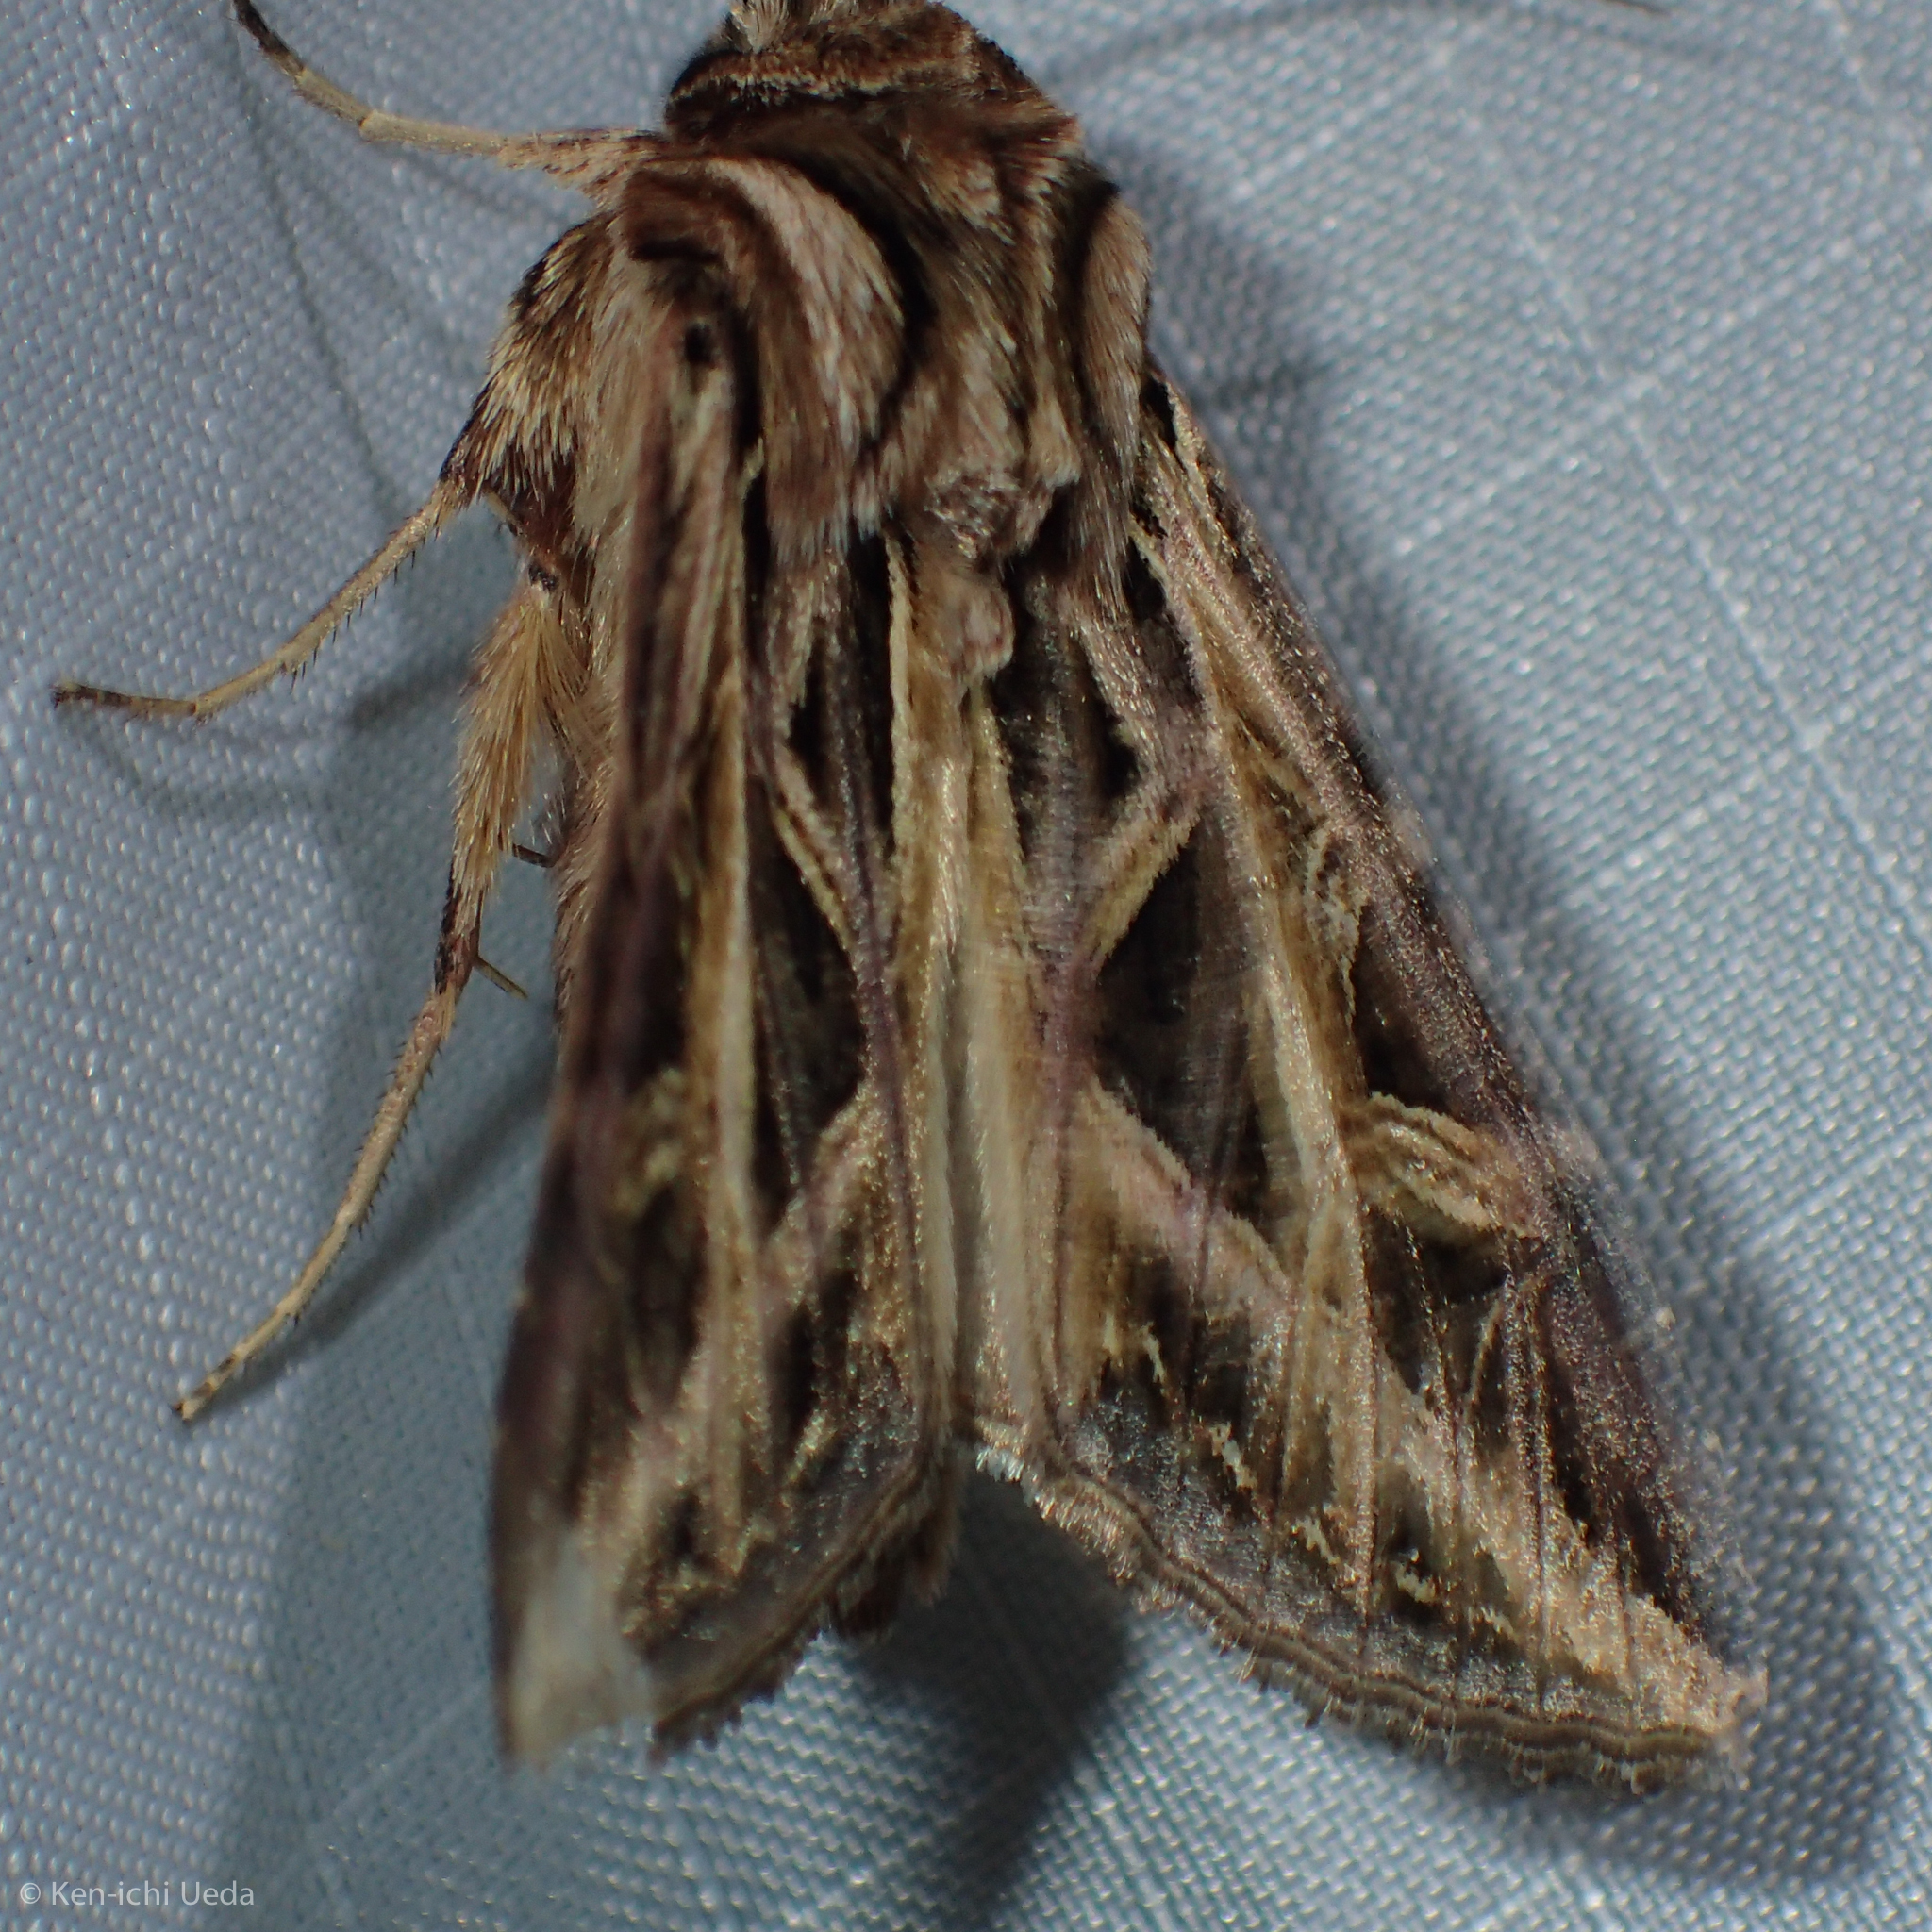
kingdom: Animalia
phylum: Arthropoda
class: Insecta
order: Lepidoptera
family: Noctuidae
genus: Dargida
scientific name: Dargida procinctus
